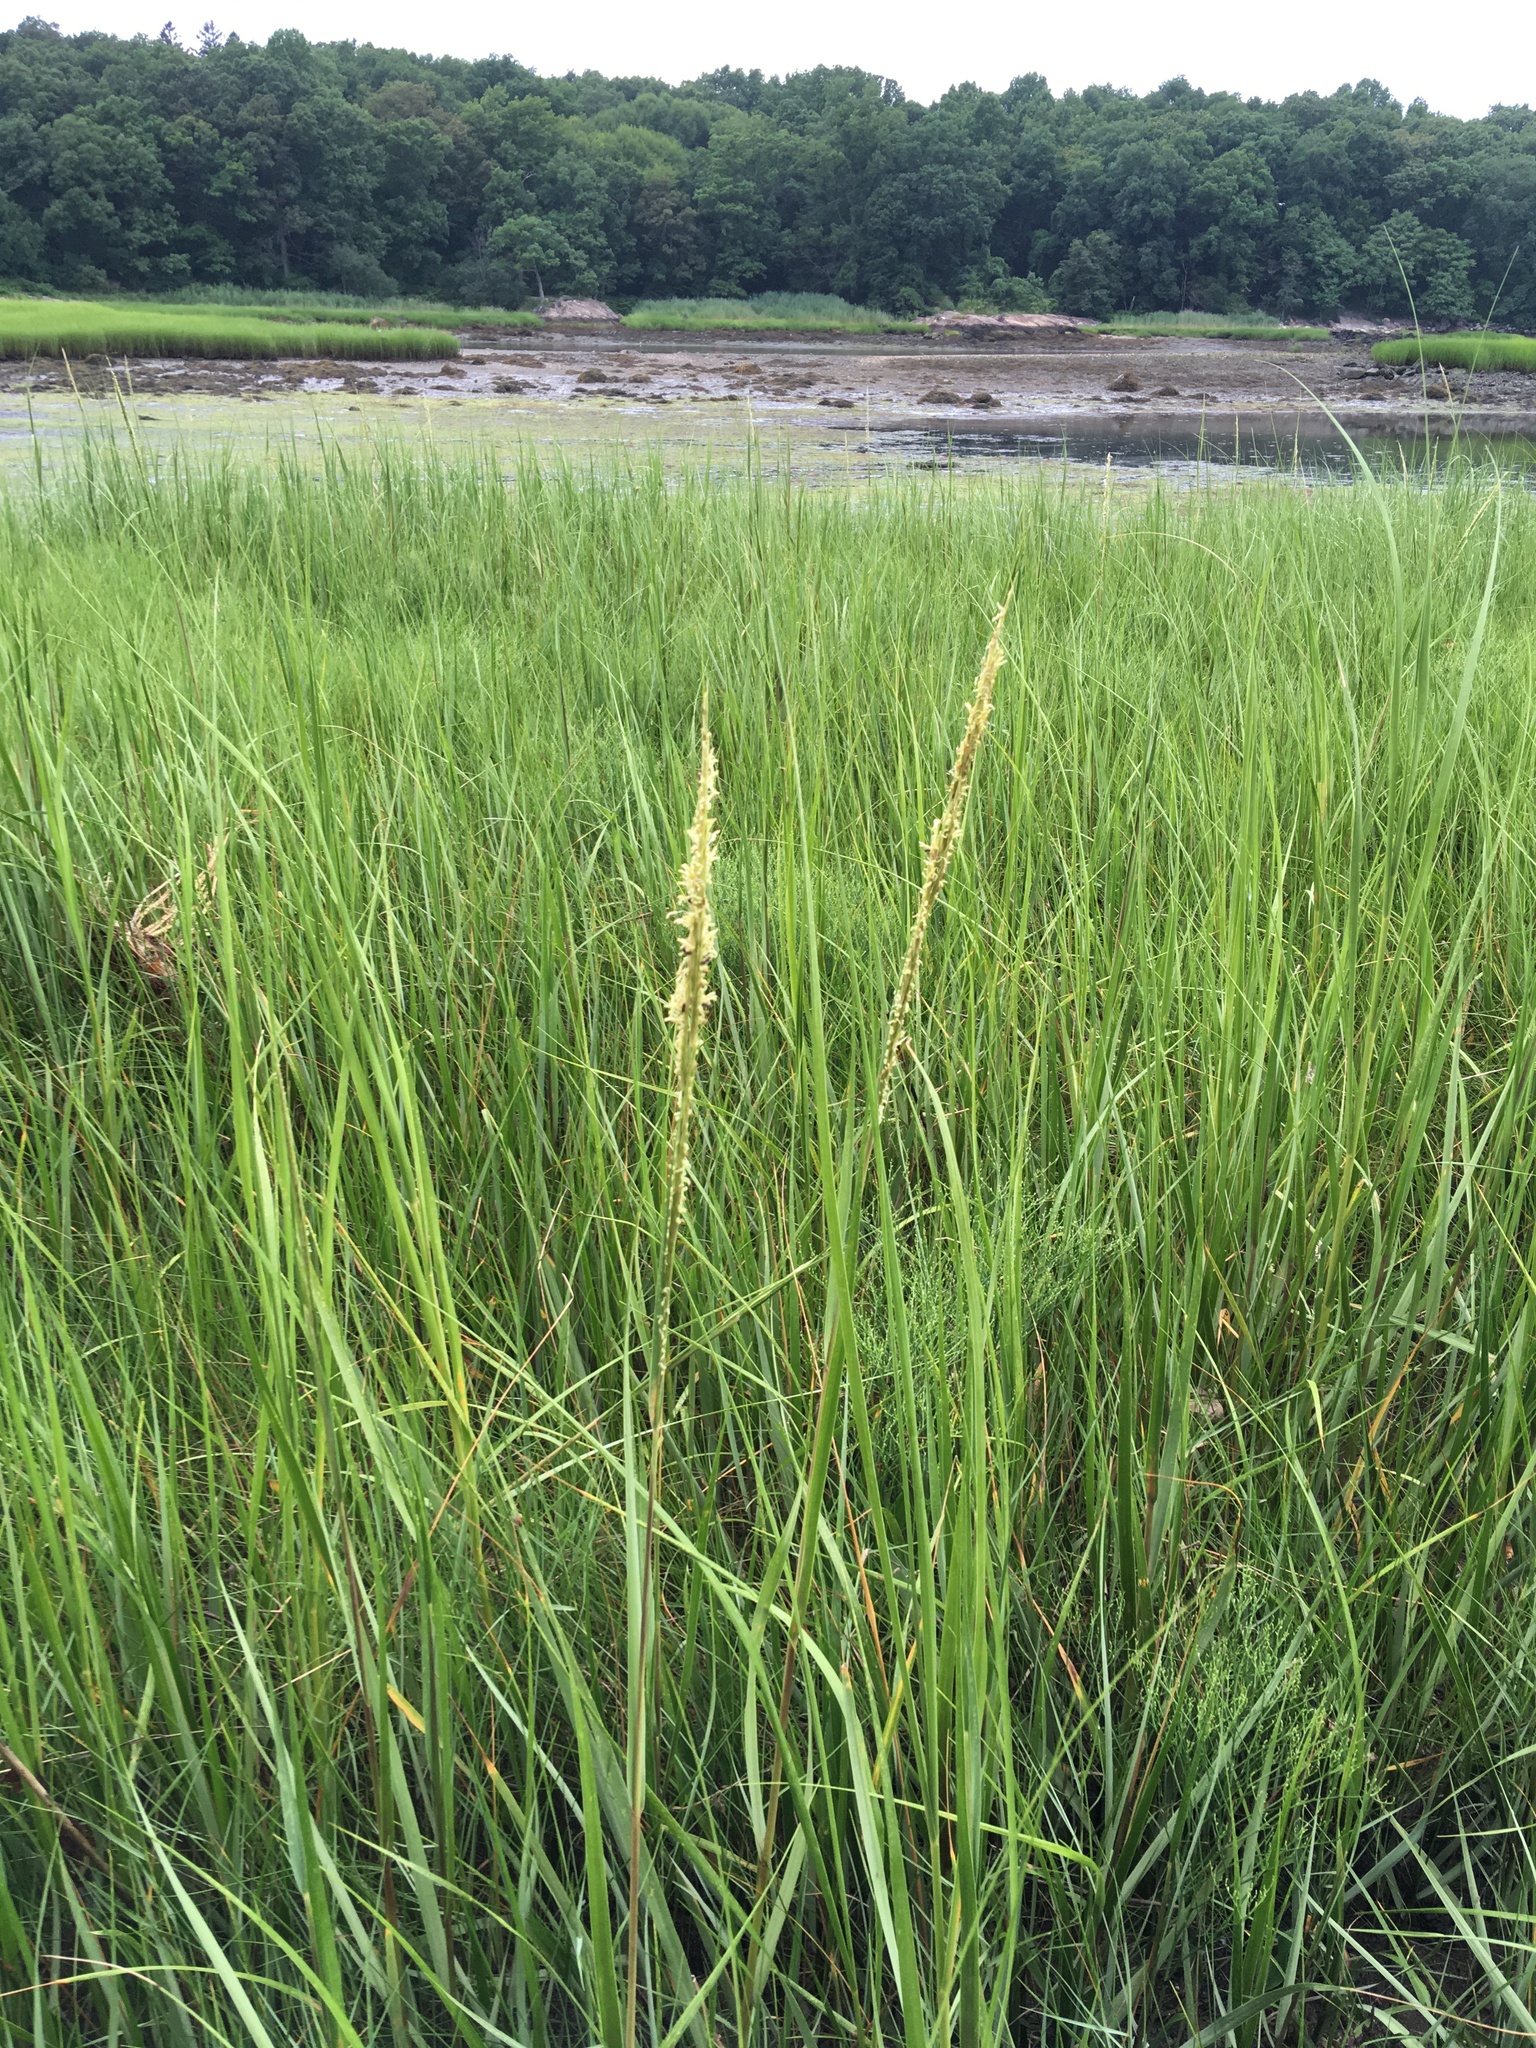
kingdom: Plantae
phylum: Tracheophyta
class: Liliopsida
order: Poales
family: Poaceae
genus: Sporobolus
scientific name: Sporobolus alterniflorus
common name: Atlantic cordgrass
